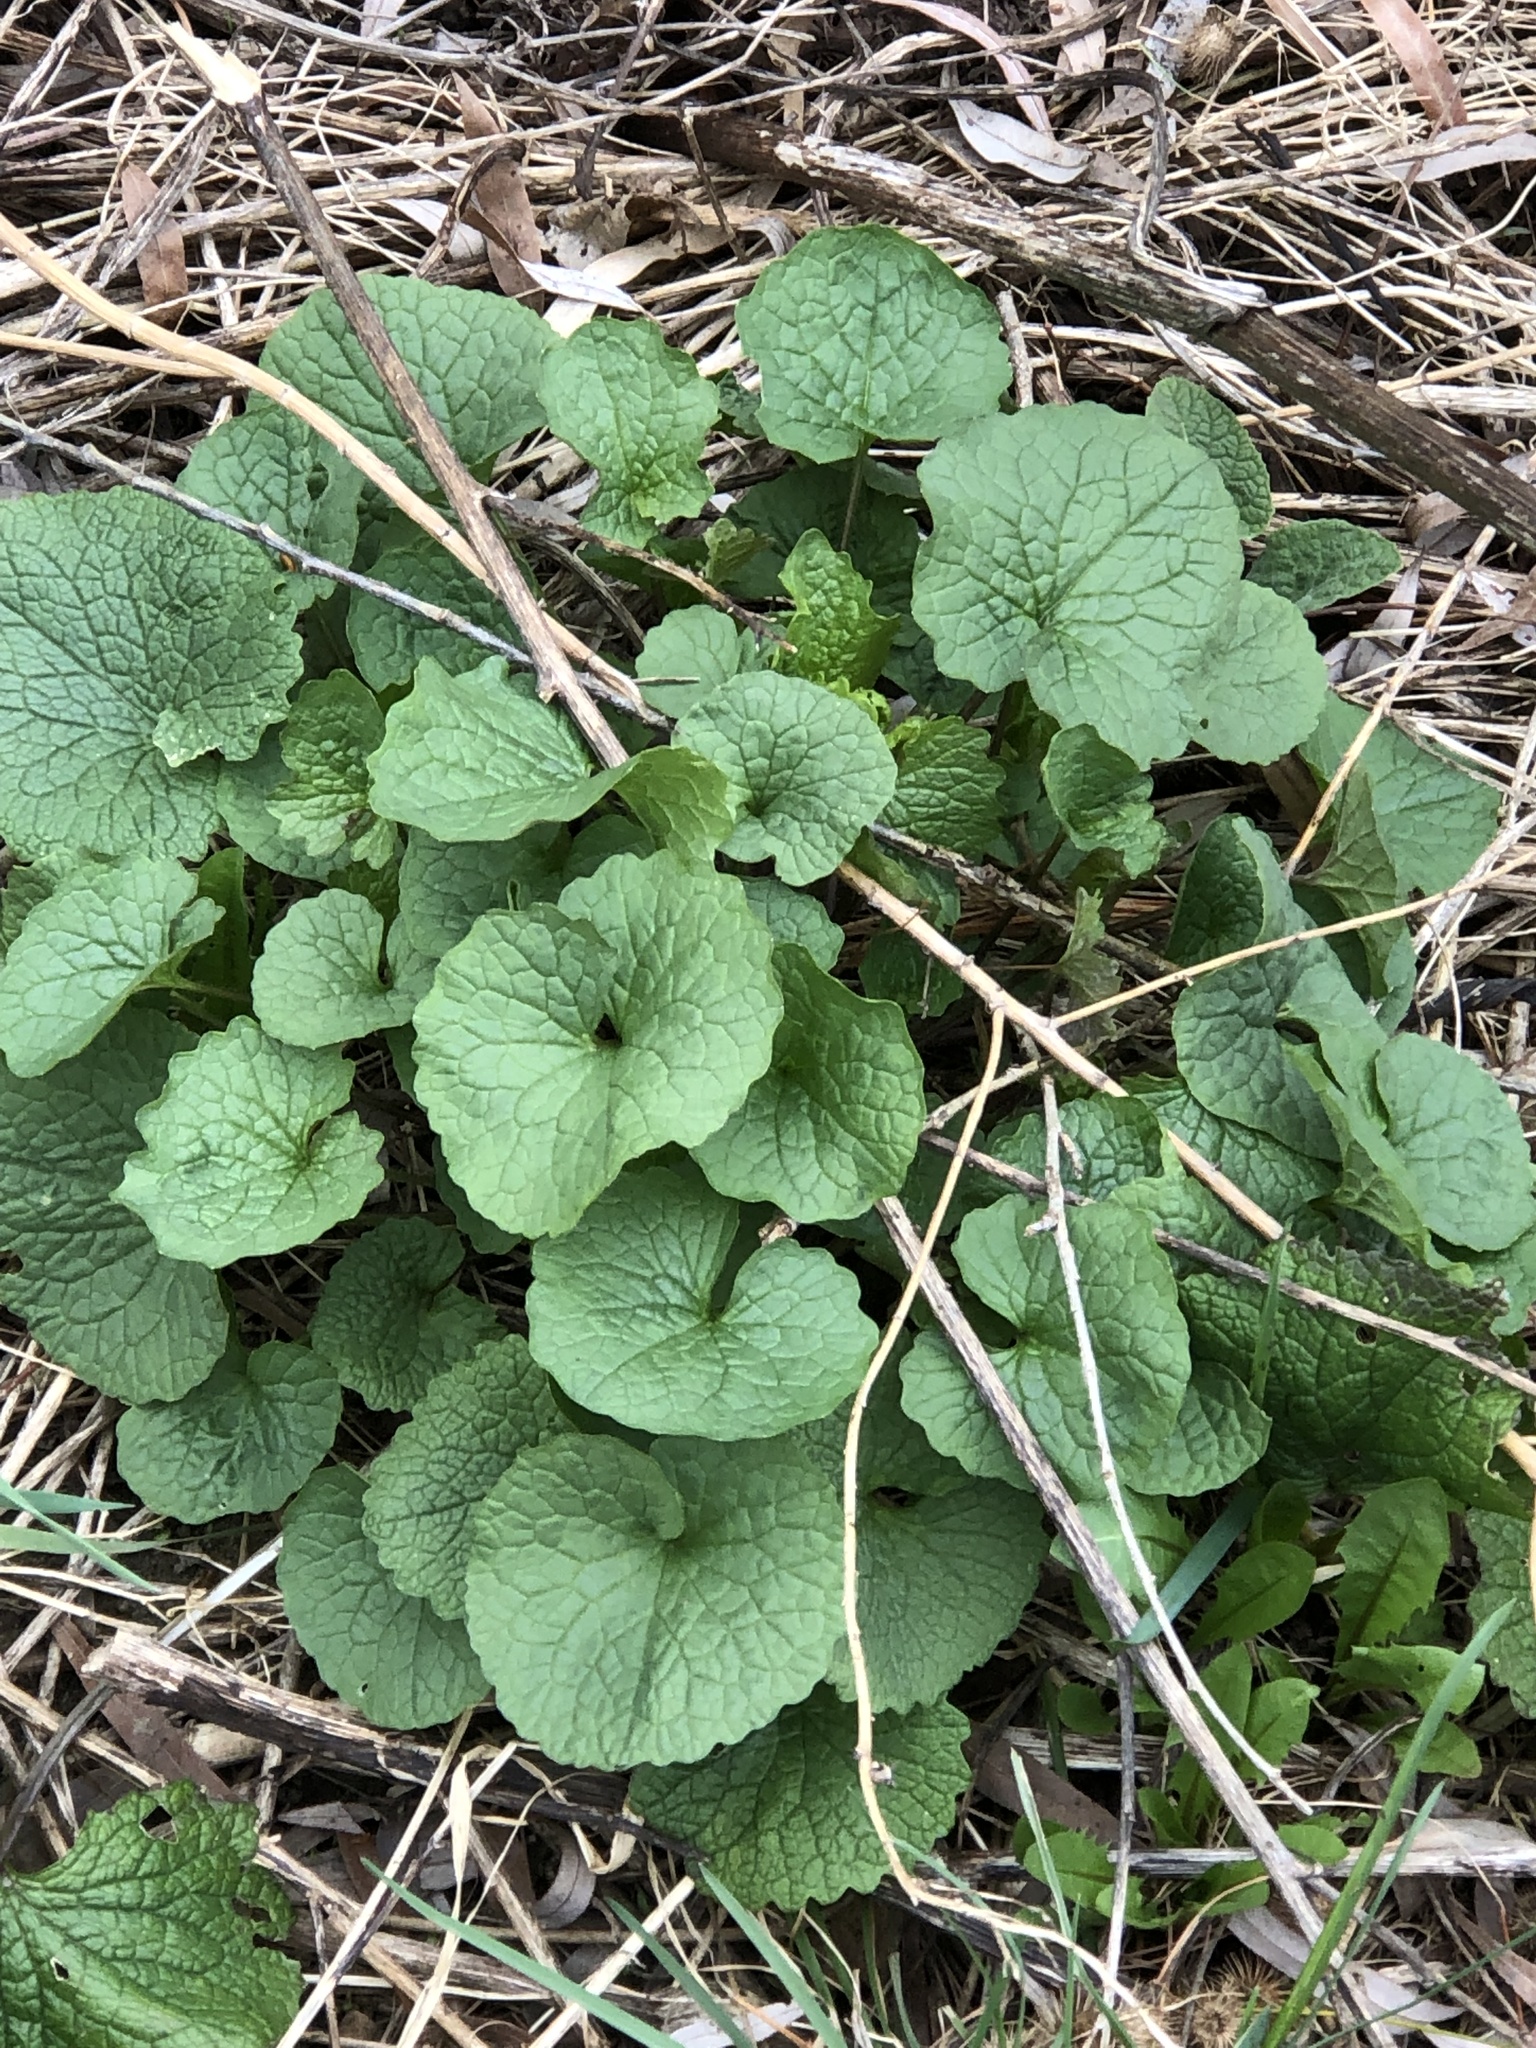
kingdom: Plantae
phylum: Tracheophyta
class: Magnoliopsida
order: Brassicales
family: Brassicaceae
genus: Alliaria
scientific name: Alliaria petiolata
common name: Garlic mustard
